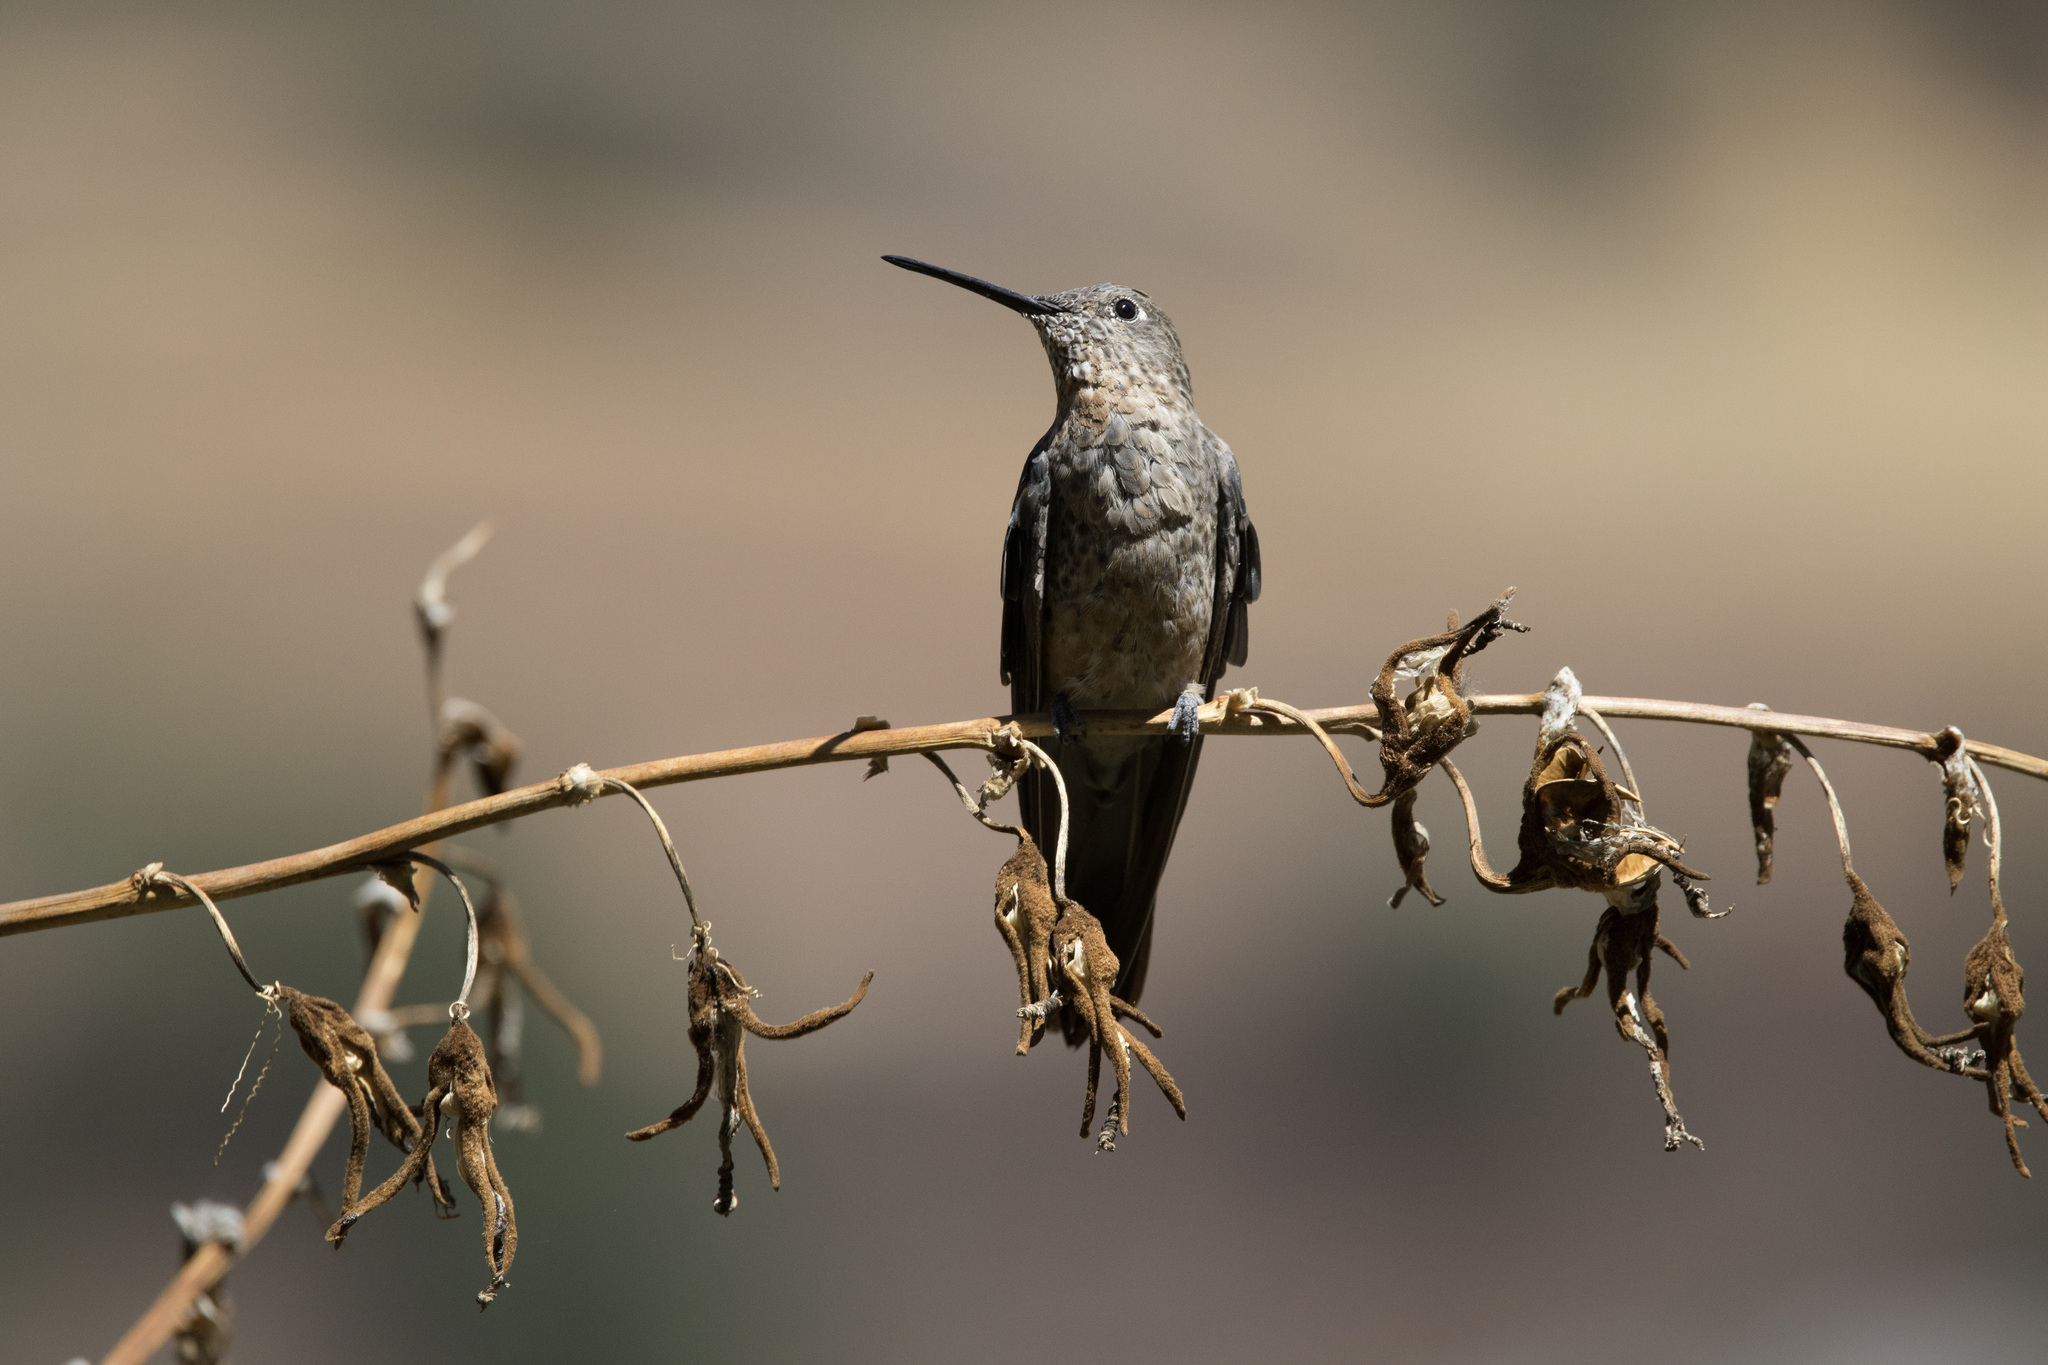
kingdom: Animalia
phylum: Chordata
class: Aves
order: Apodiformes
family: Trochilidae
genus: Patagona
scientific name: Patagona gigas
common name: Giant hummingbird
